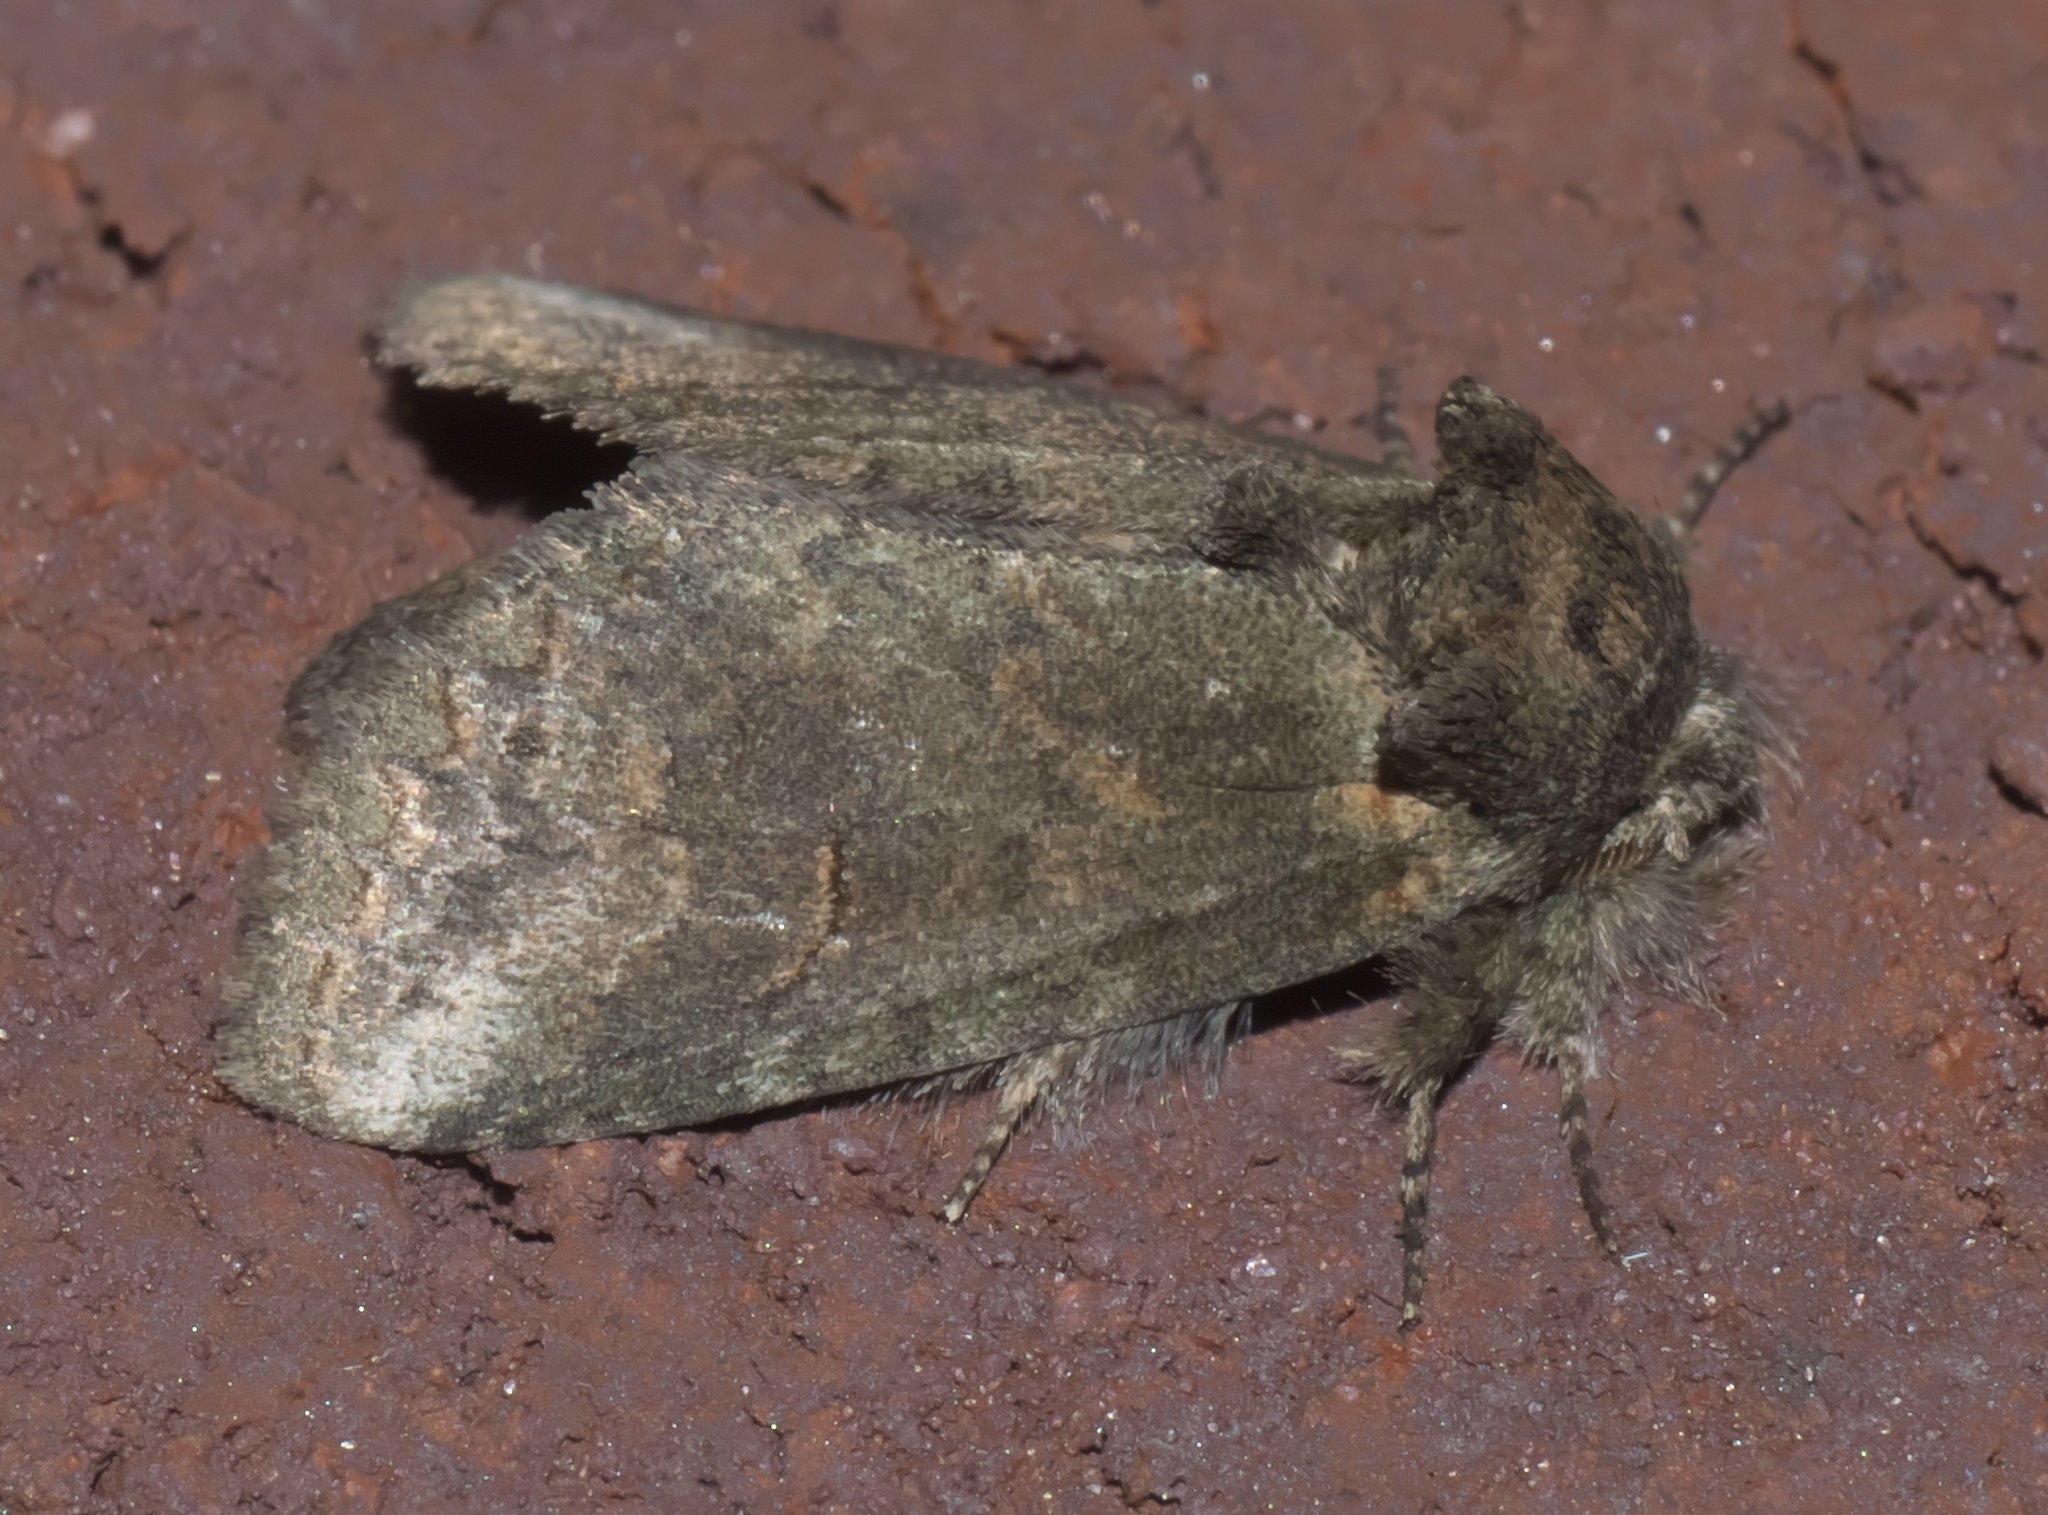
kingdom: Animalia
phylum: Arthropoda
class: Insecta
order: Lepidoptera
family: Notodontidae
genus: Rifargia
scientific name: Rifargia
